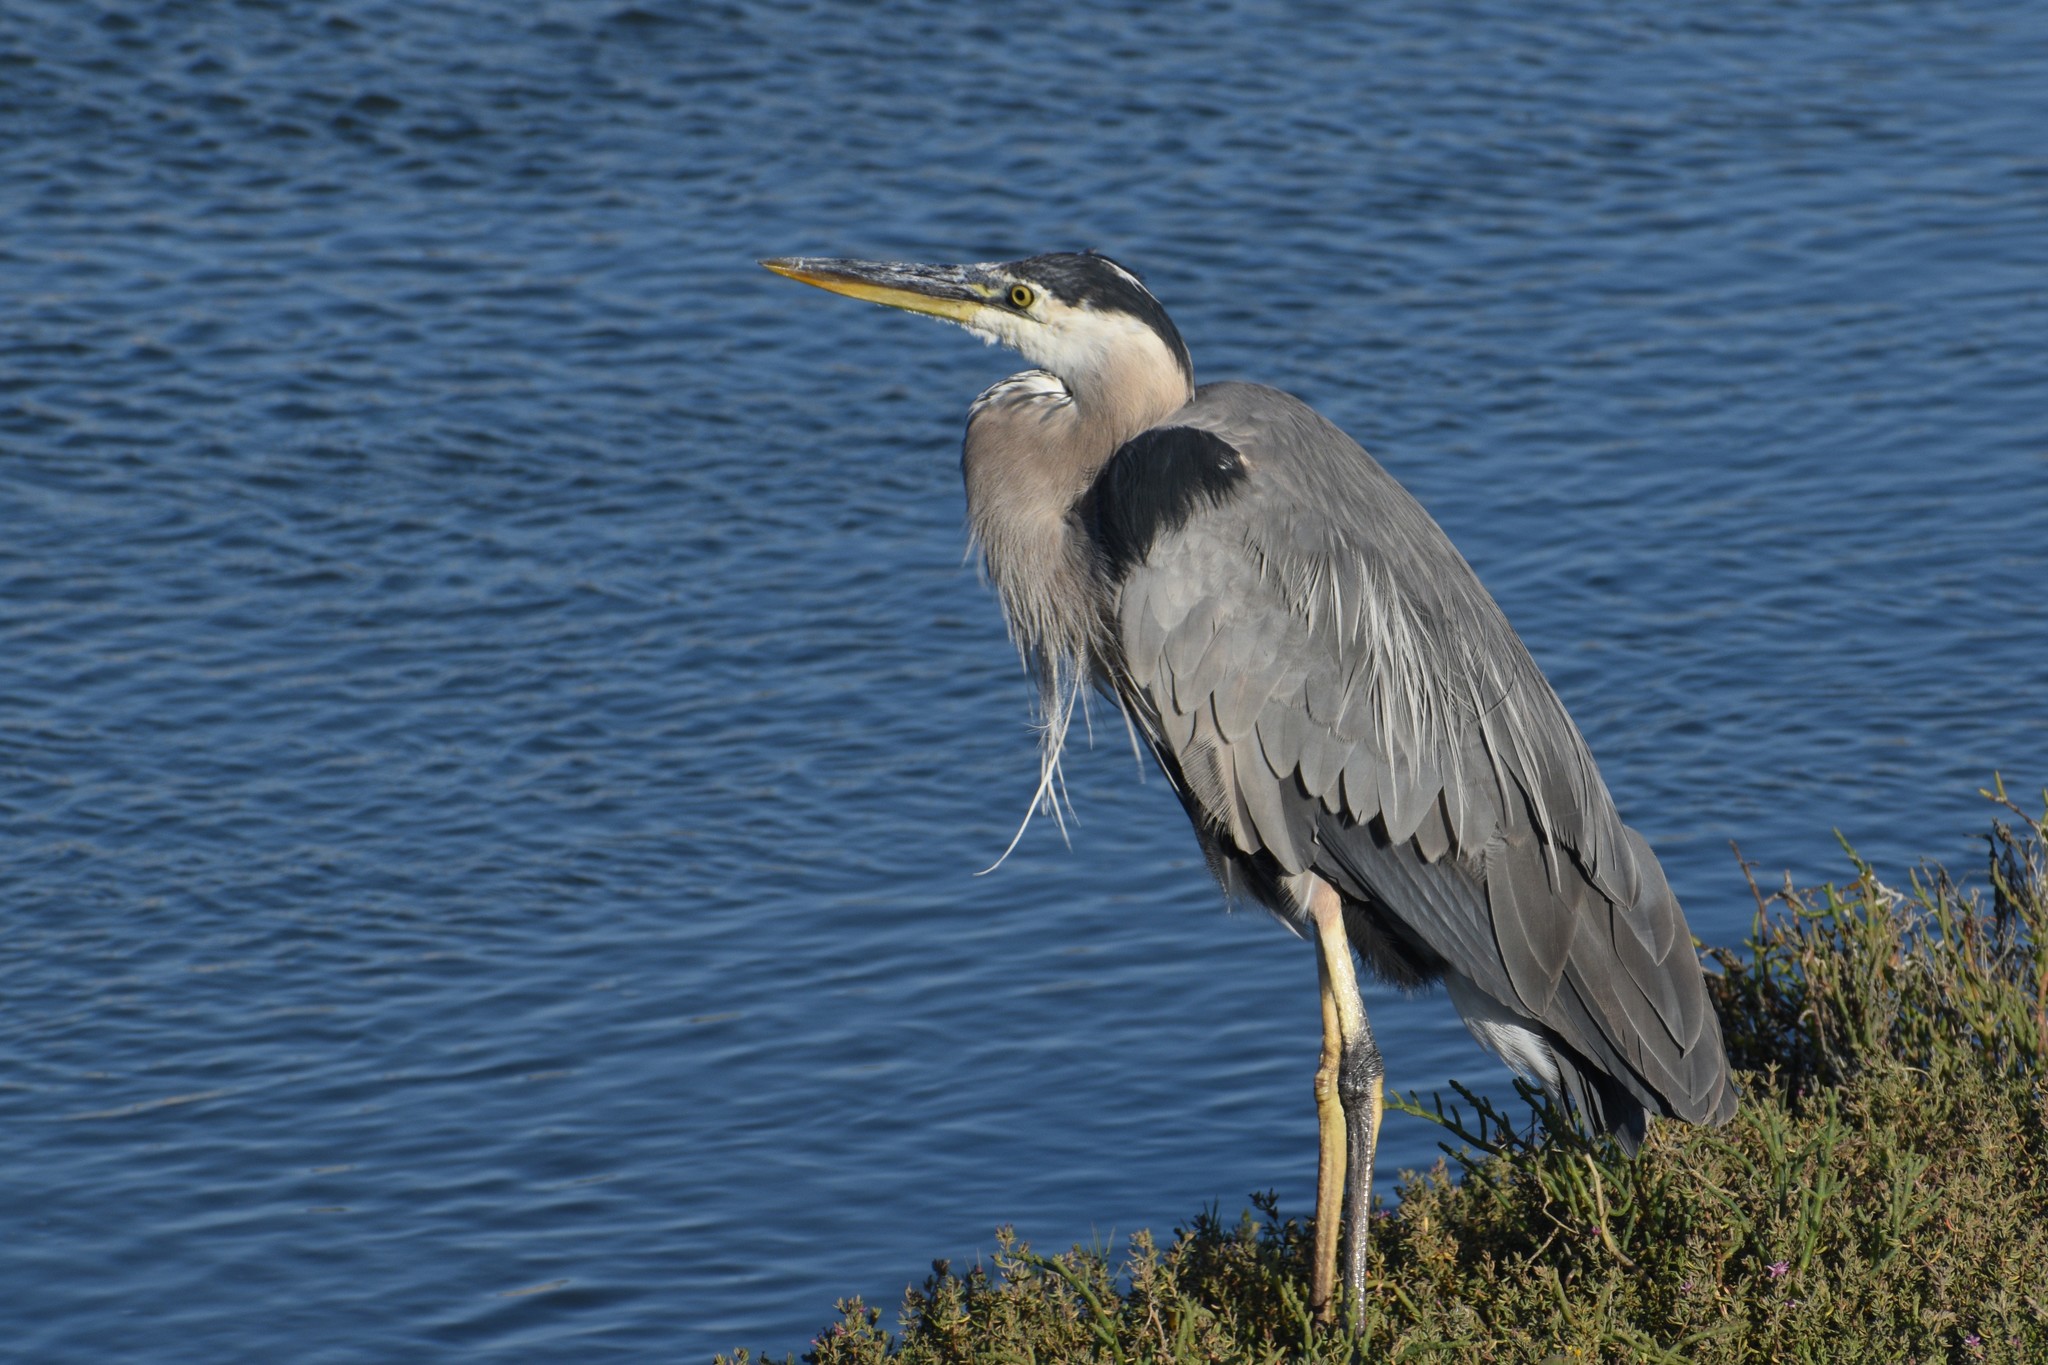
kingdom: Animalia
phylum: Chordata
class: Aves
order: Pelecaniformes
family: Ardeidae
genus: Ardea
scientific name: Ardea herodias
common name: Great blue heron
